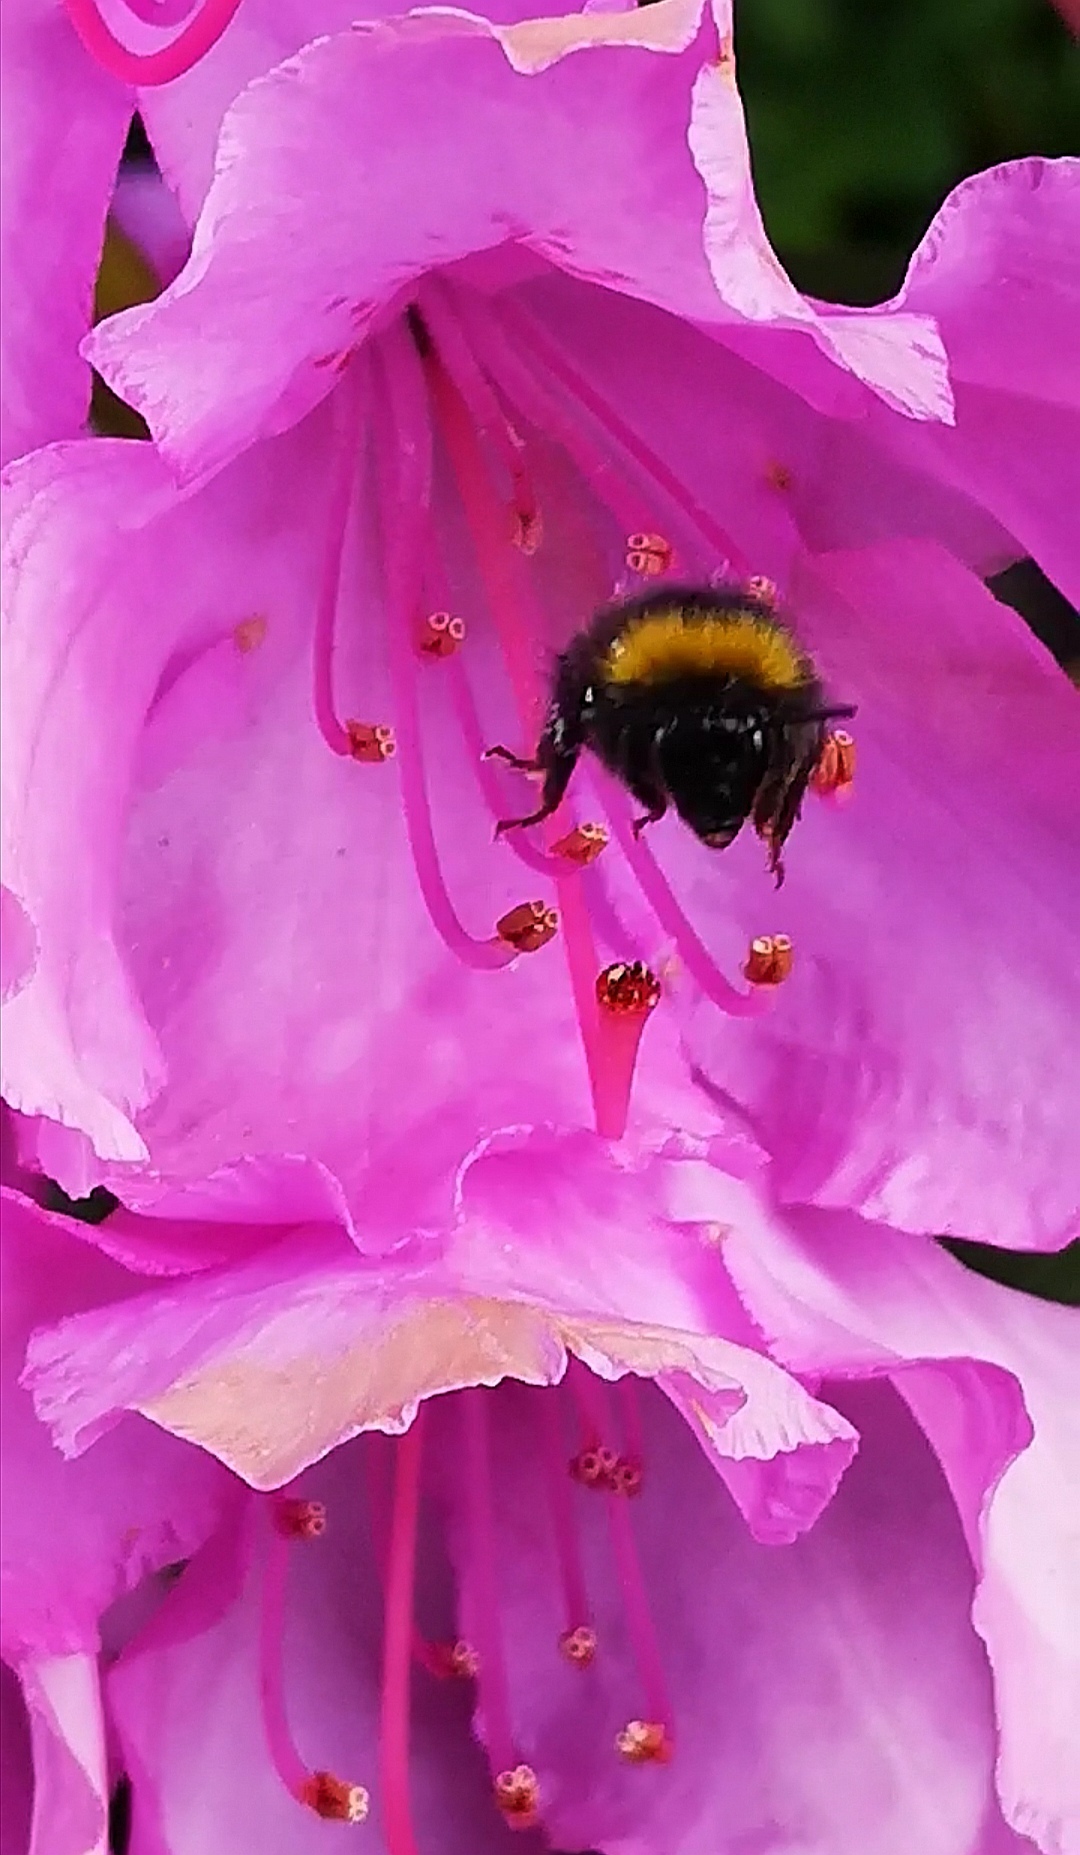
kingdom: Animalia
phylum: Arthropoda
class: Insecta
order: Hymenoptera
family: Apidae
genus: Bombus
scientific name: Bombus lapidarius
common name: Large red-tailed humble-bee
